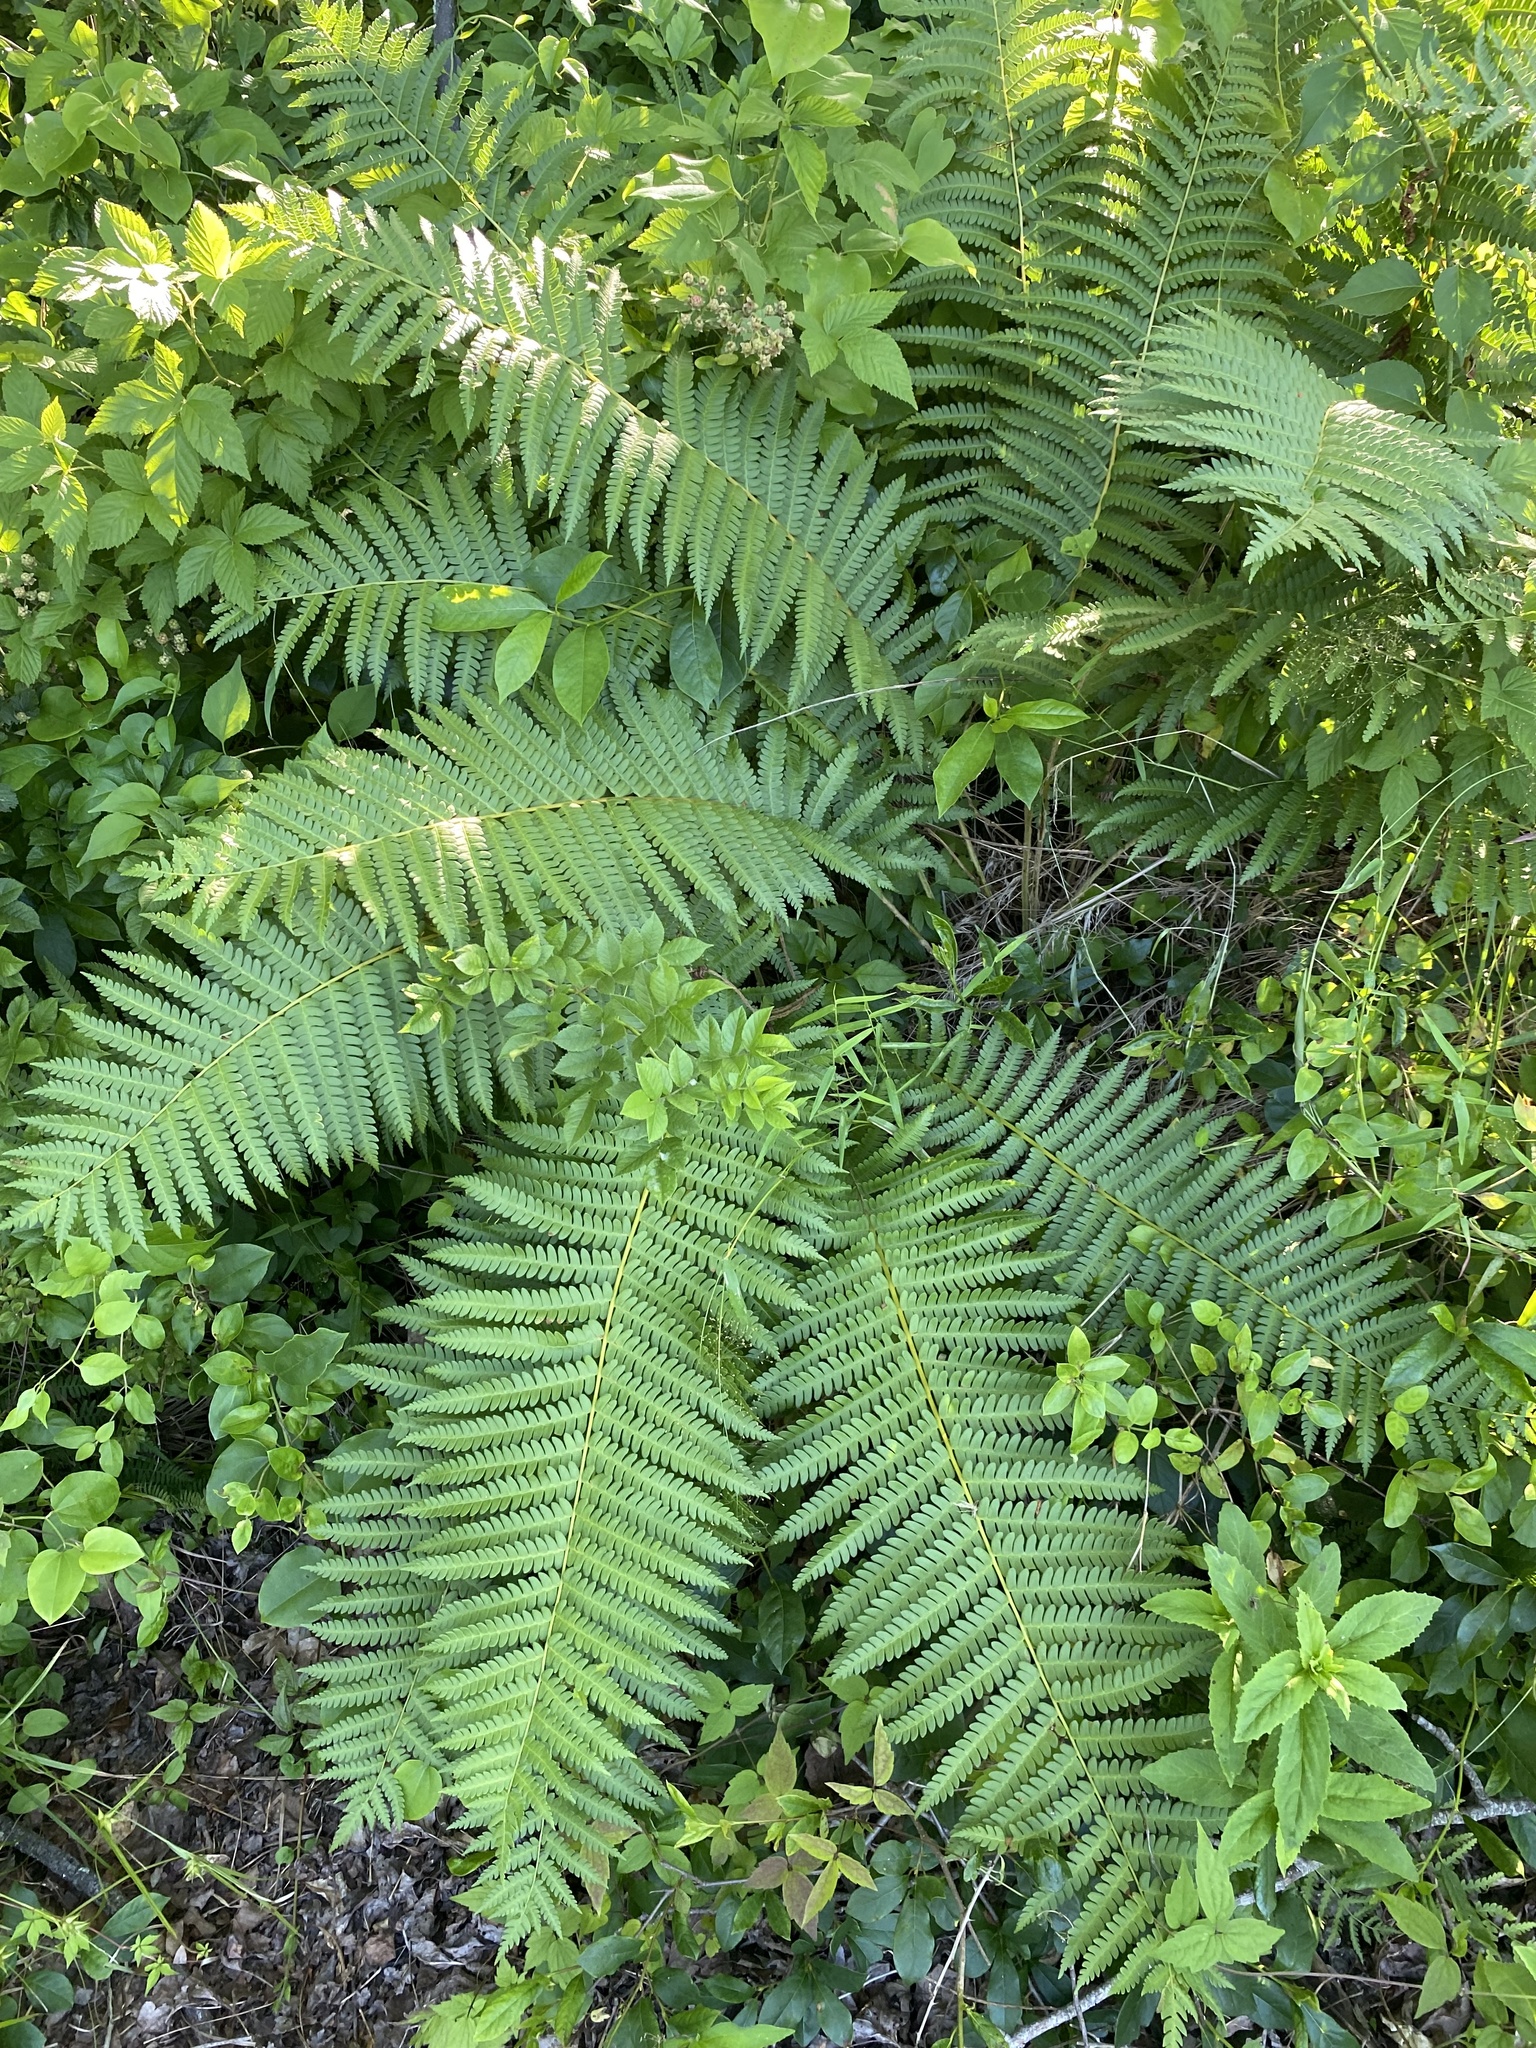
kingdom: Plantae
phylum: Tracheophyta
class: Polypodiopsida
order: Osmundales
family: Osmundaceae
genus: Osmundastrum
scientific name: Osmundastrum cinnamomeum
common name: Cinnamon fern
